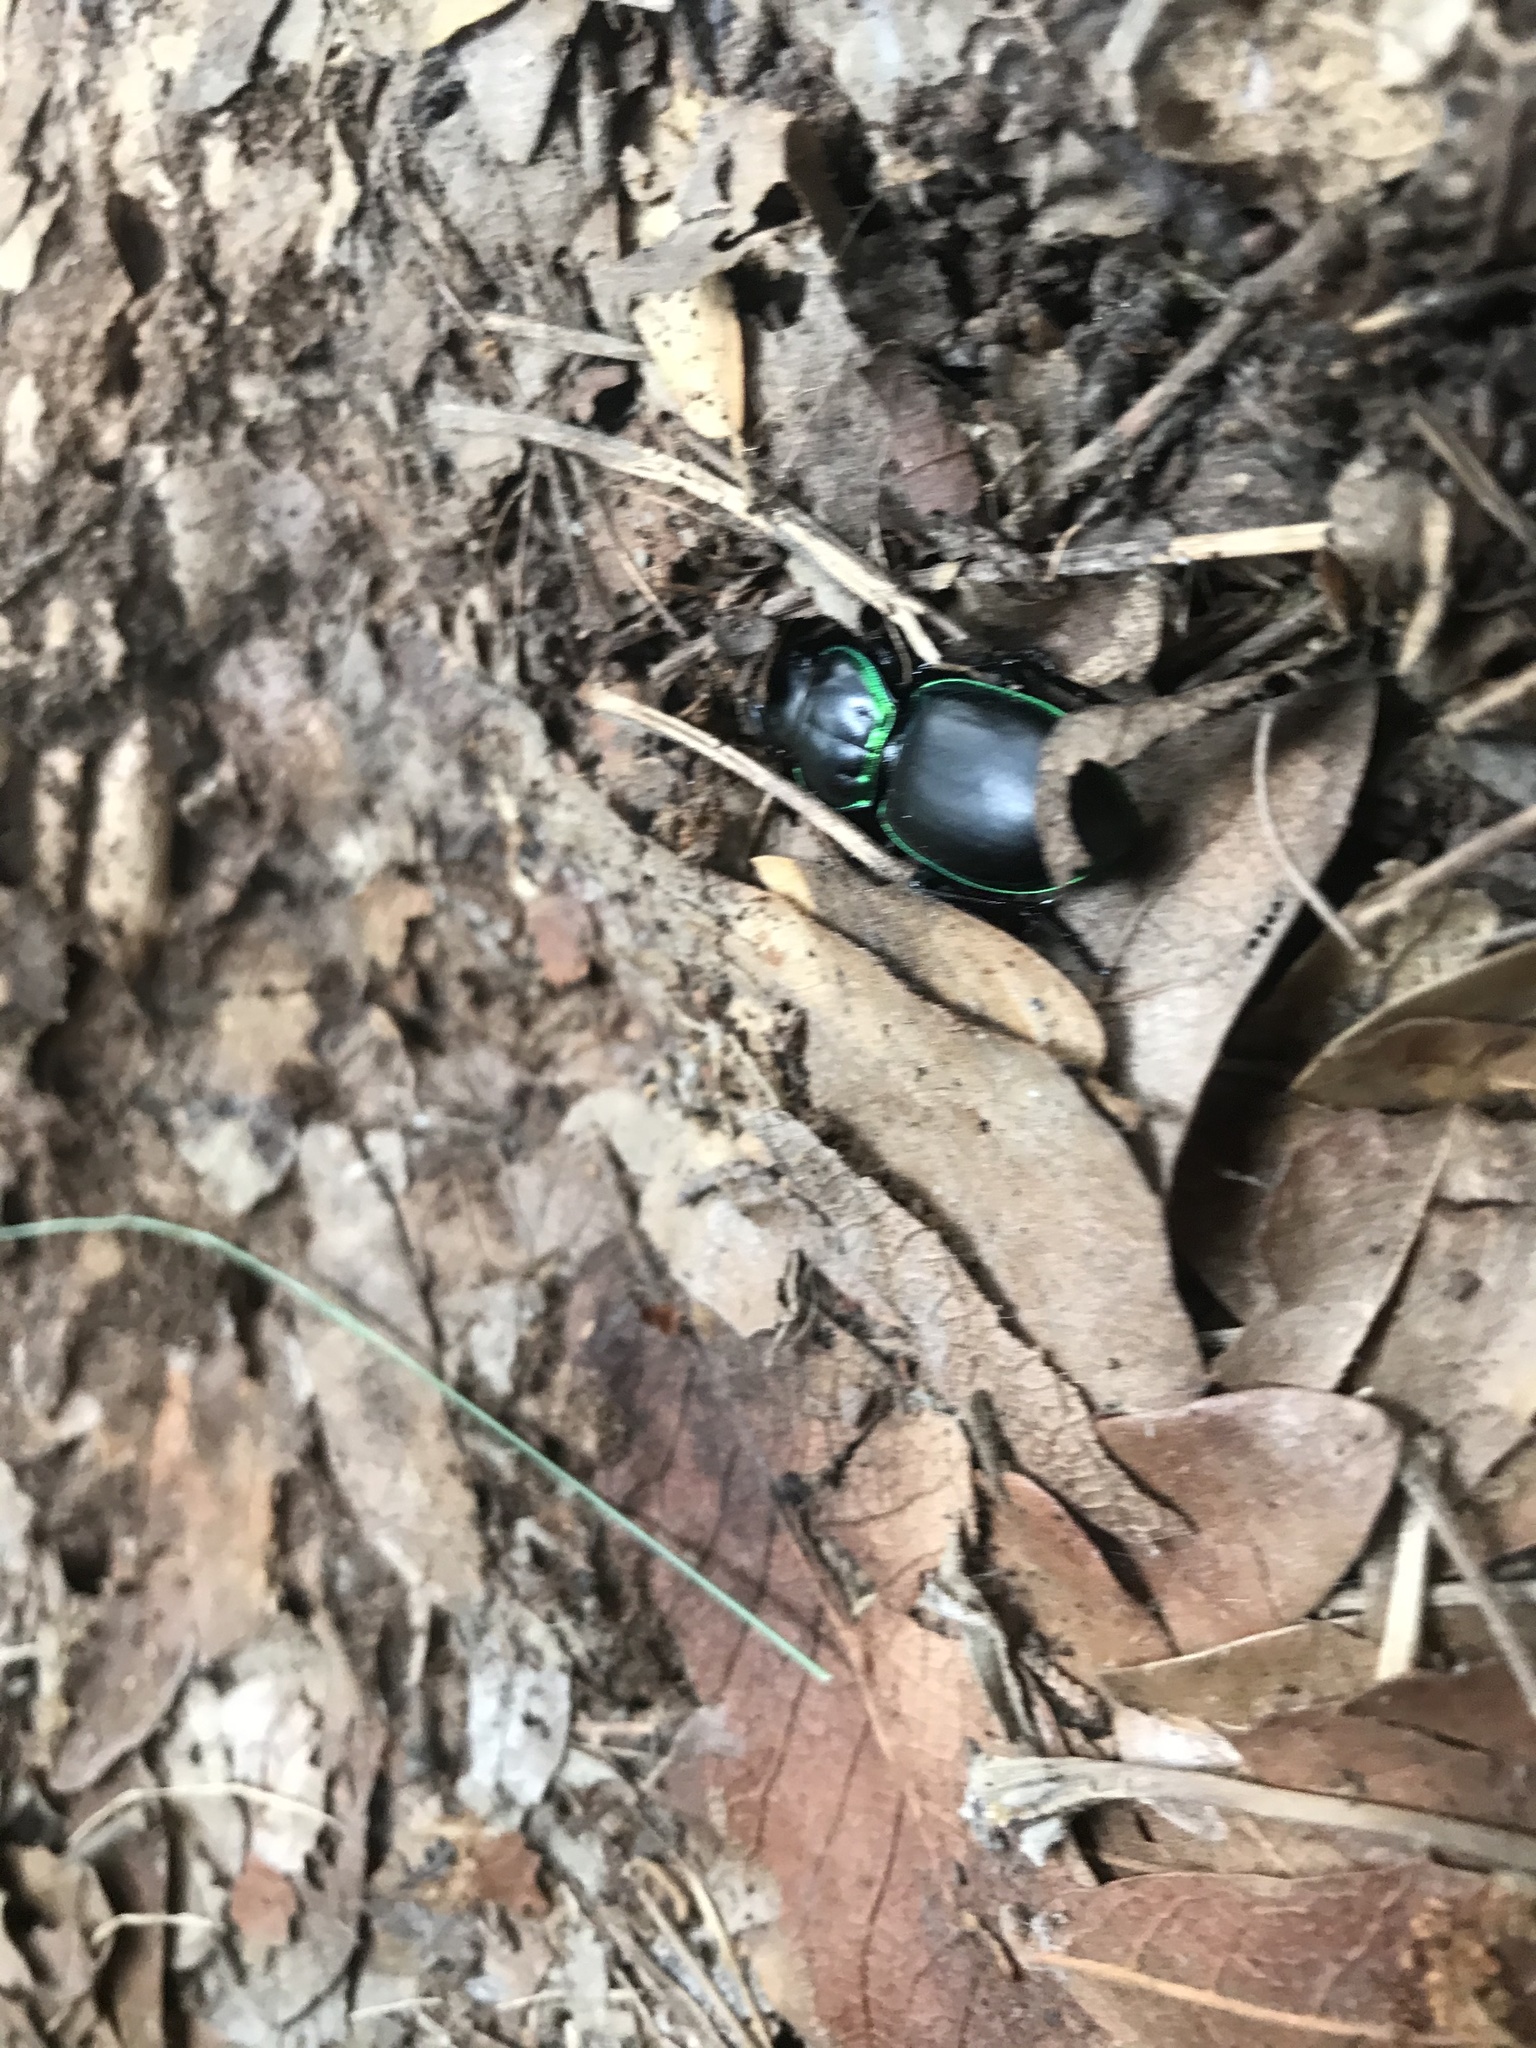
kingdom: Animalia
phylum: Arthropoda
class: Insecta
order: Coleoptera
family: Carabidae
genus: Pasimachus
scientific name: Pasimachus viridans
